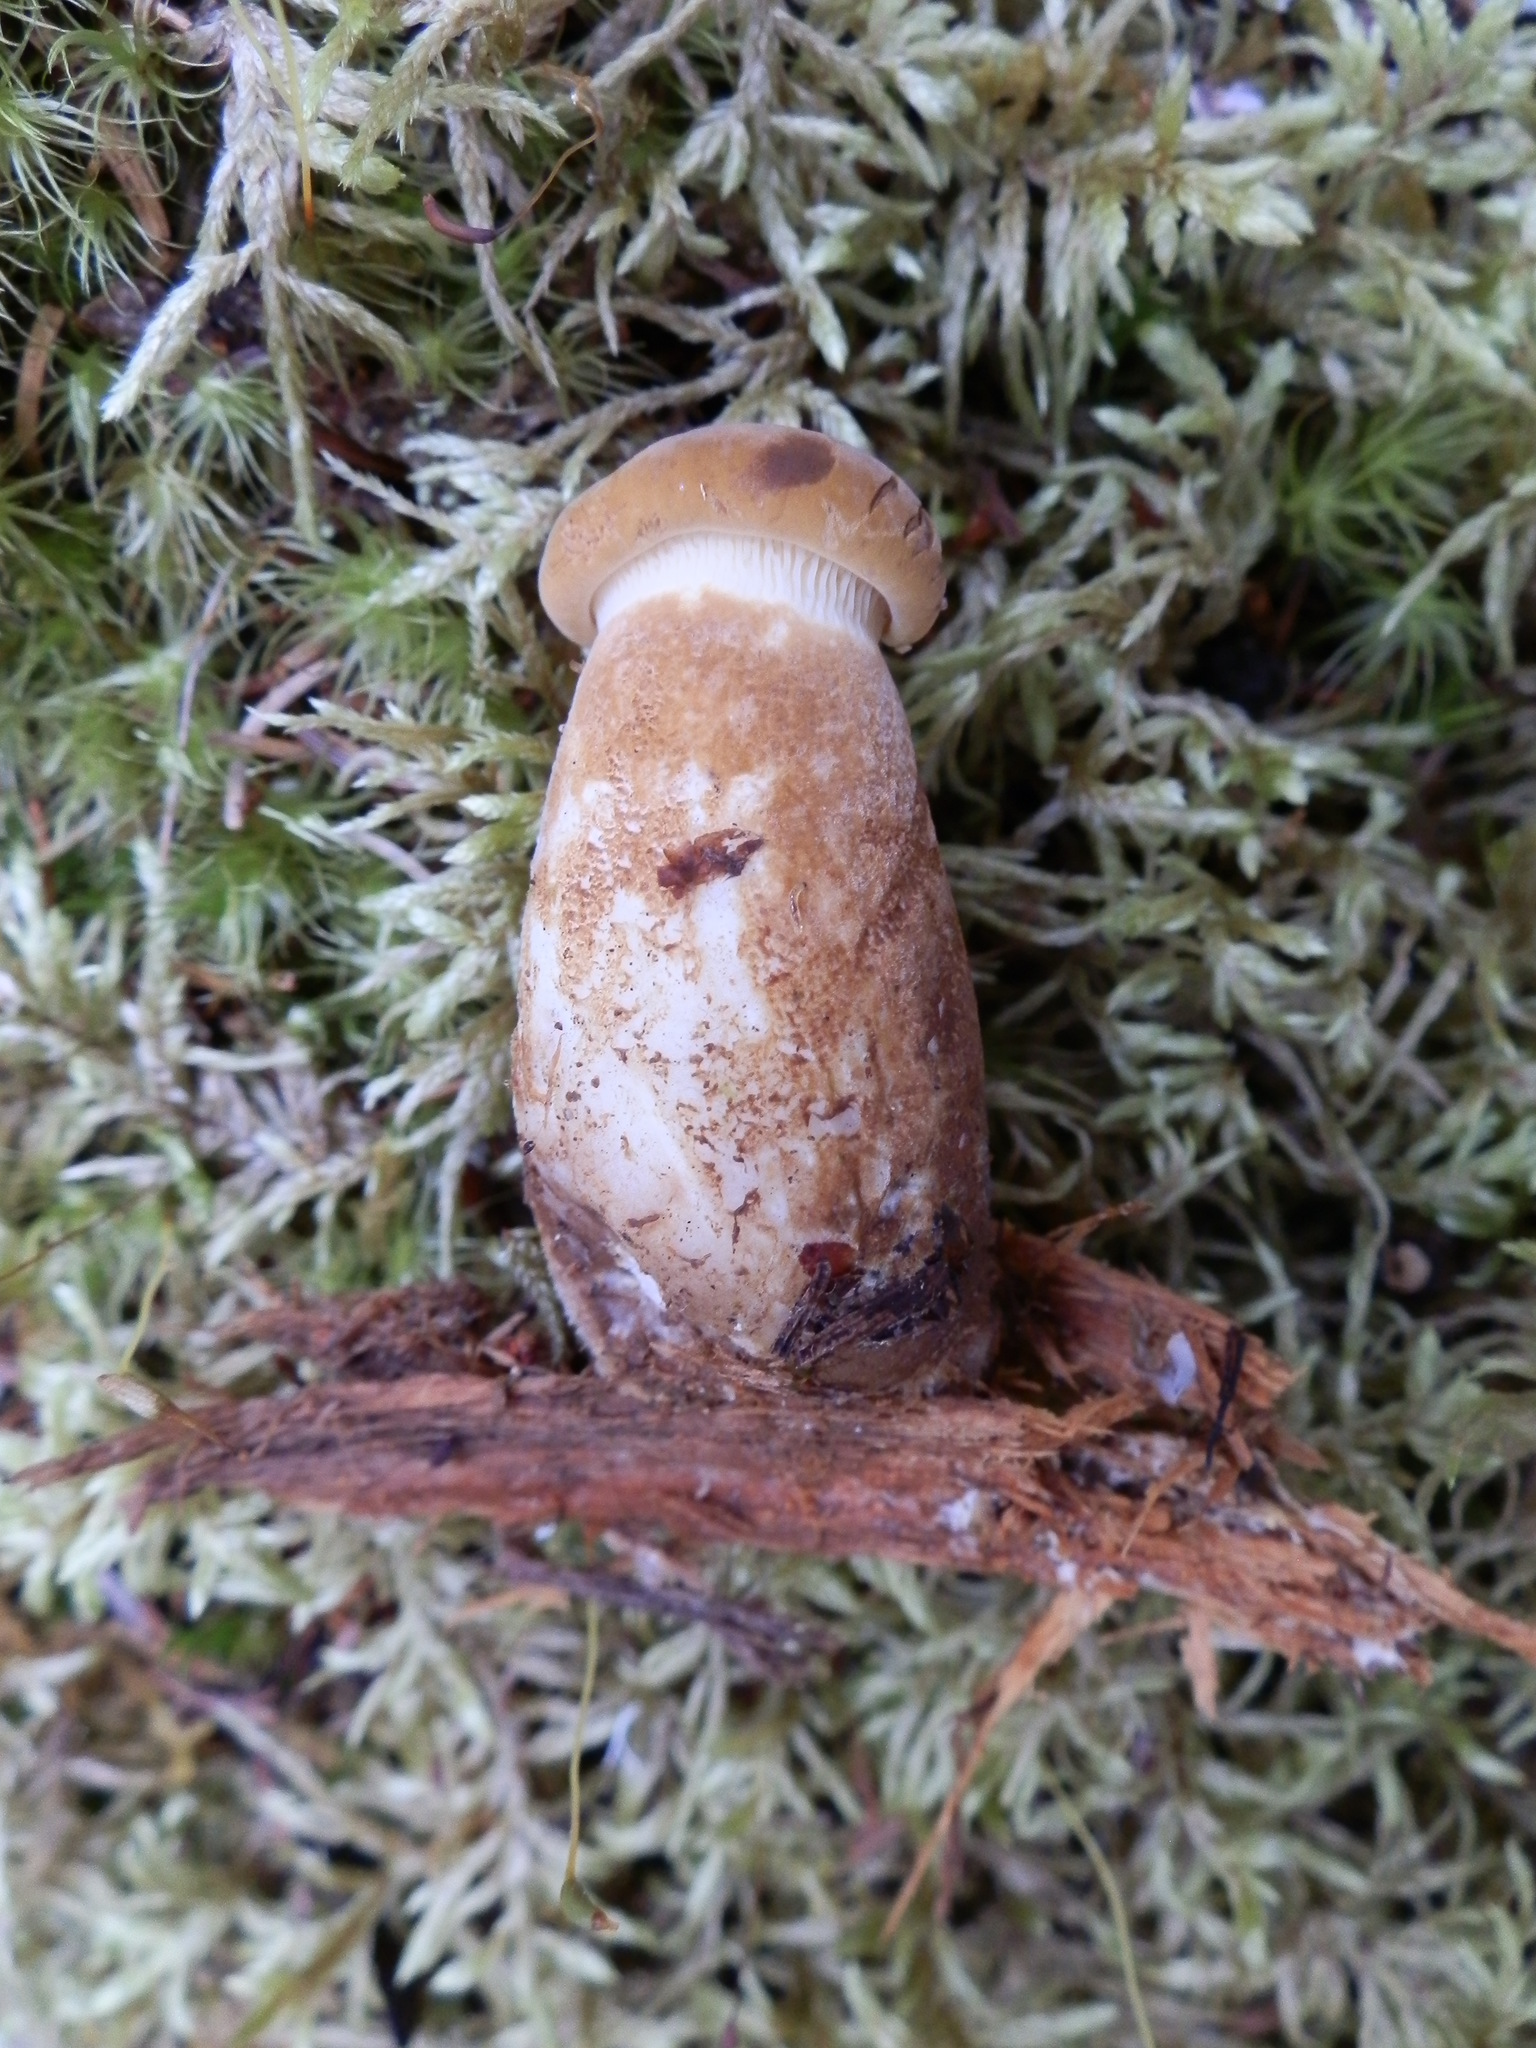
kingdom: Fungi
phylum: Basidiomycota
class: Agaricomycetes
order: Boletales
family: Tapinellaceae
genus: Tapinella
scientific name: Tapinella atrotomentosa
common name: Velvet rollrim
